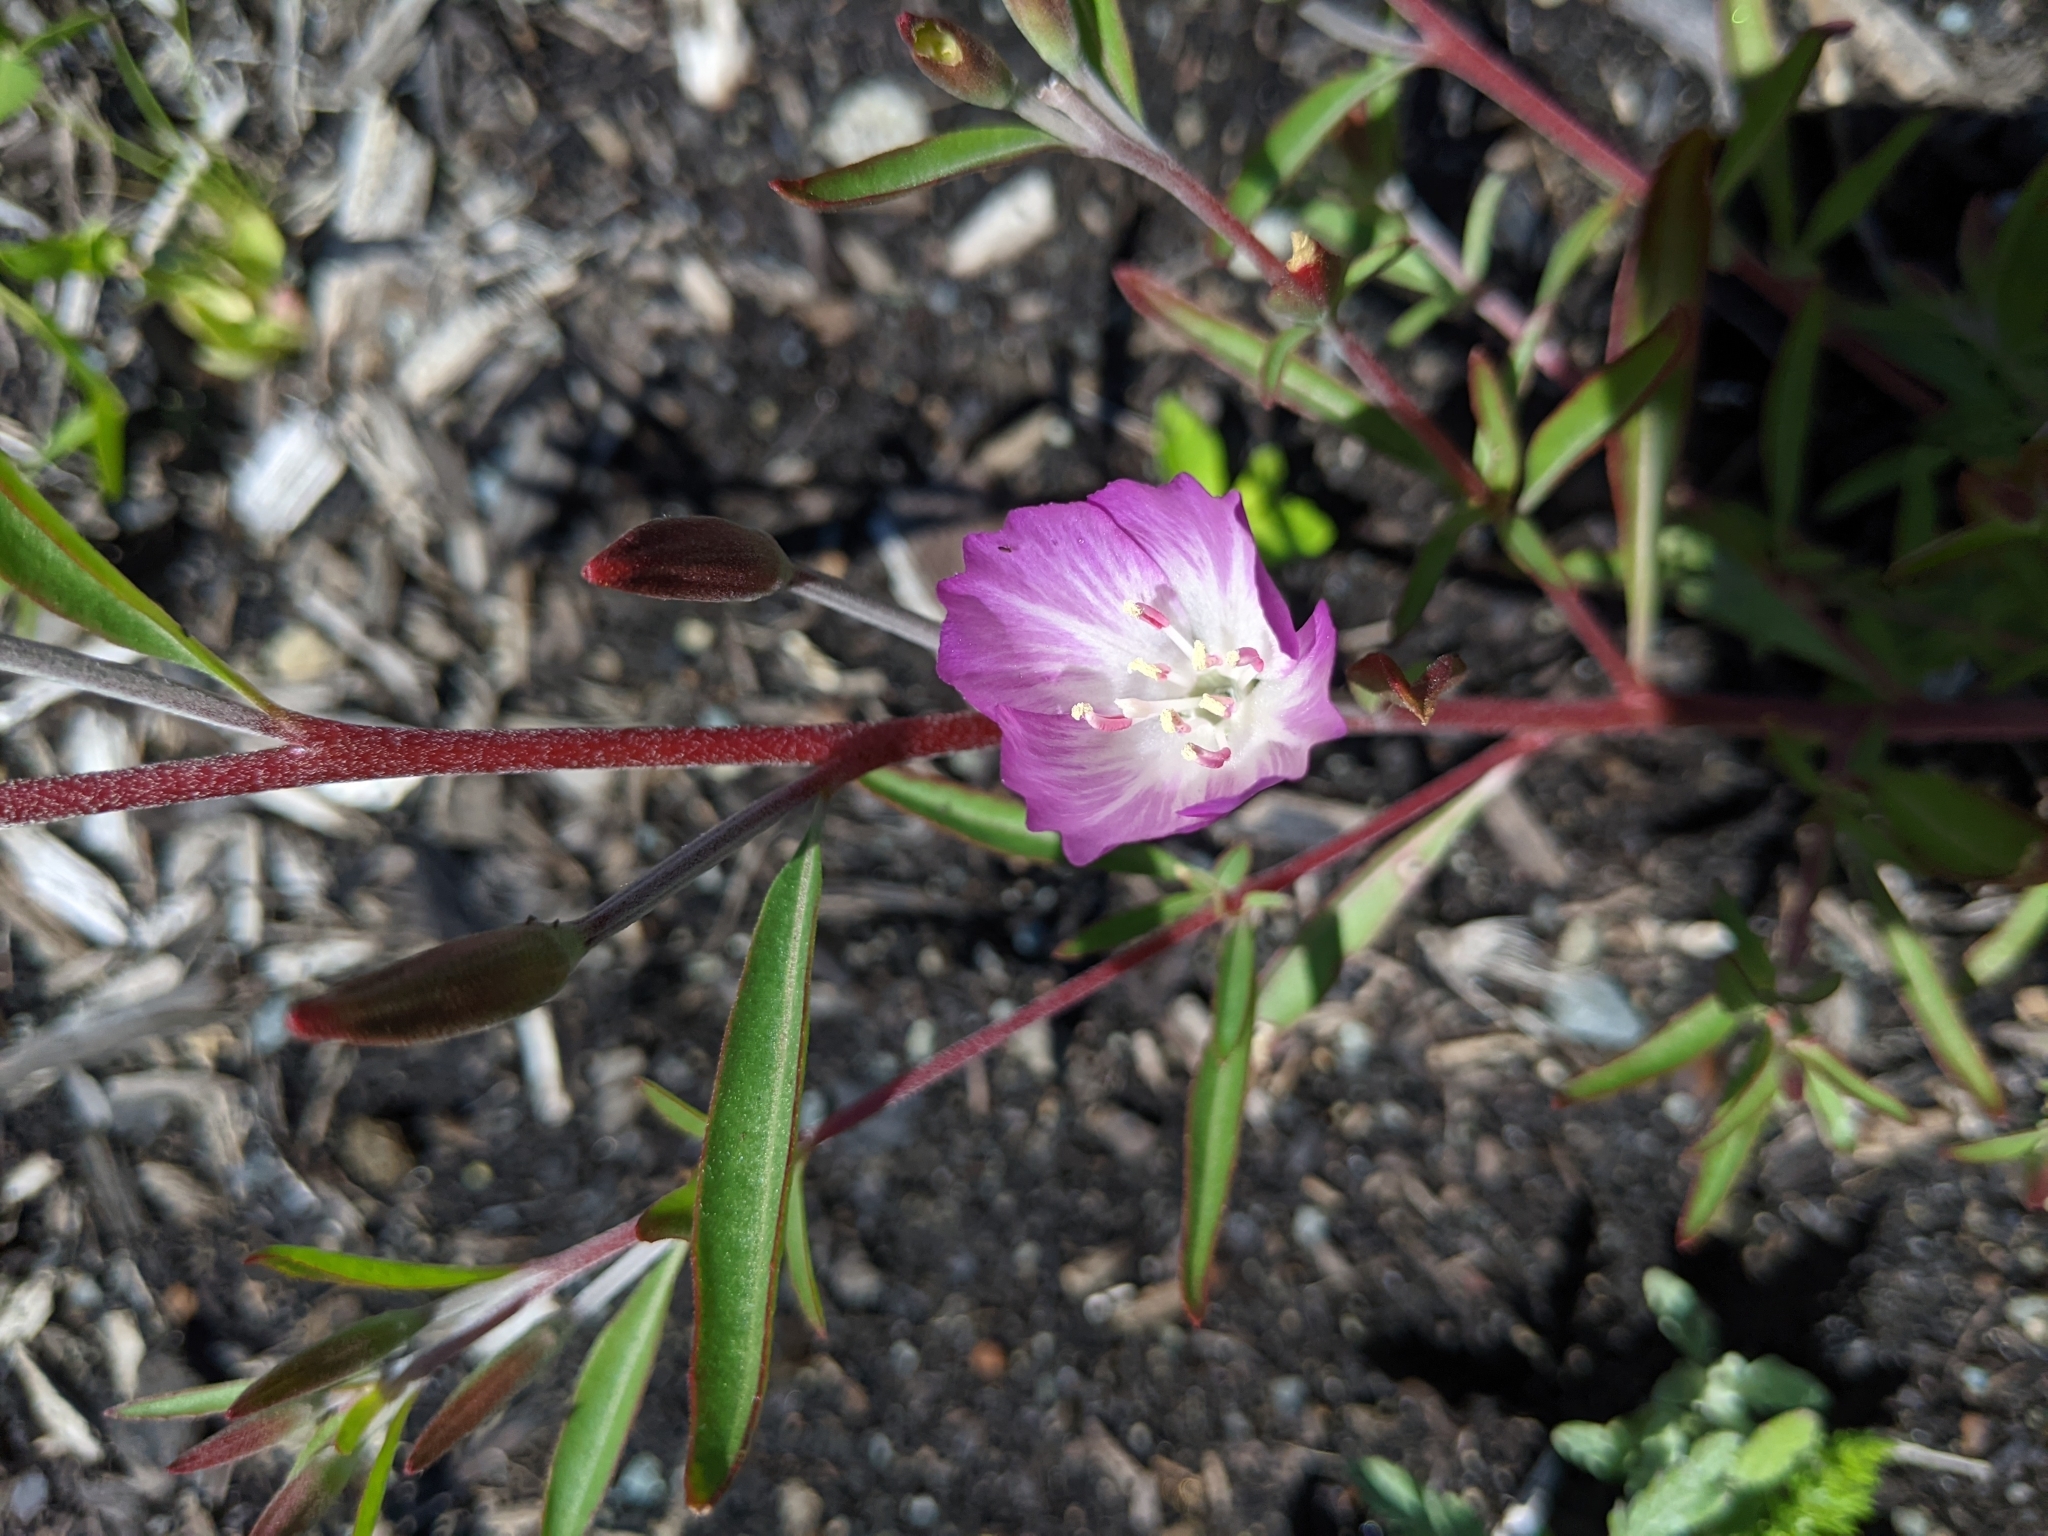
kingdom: Plantae
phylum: Tracheophyta
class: Magnoliopsida
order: Myrtales
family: Onagraceae
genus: Clarkia
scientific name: Clarkia amoena
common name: Godetia
